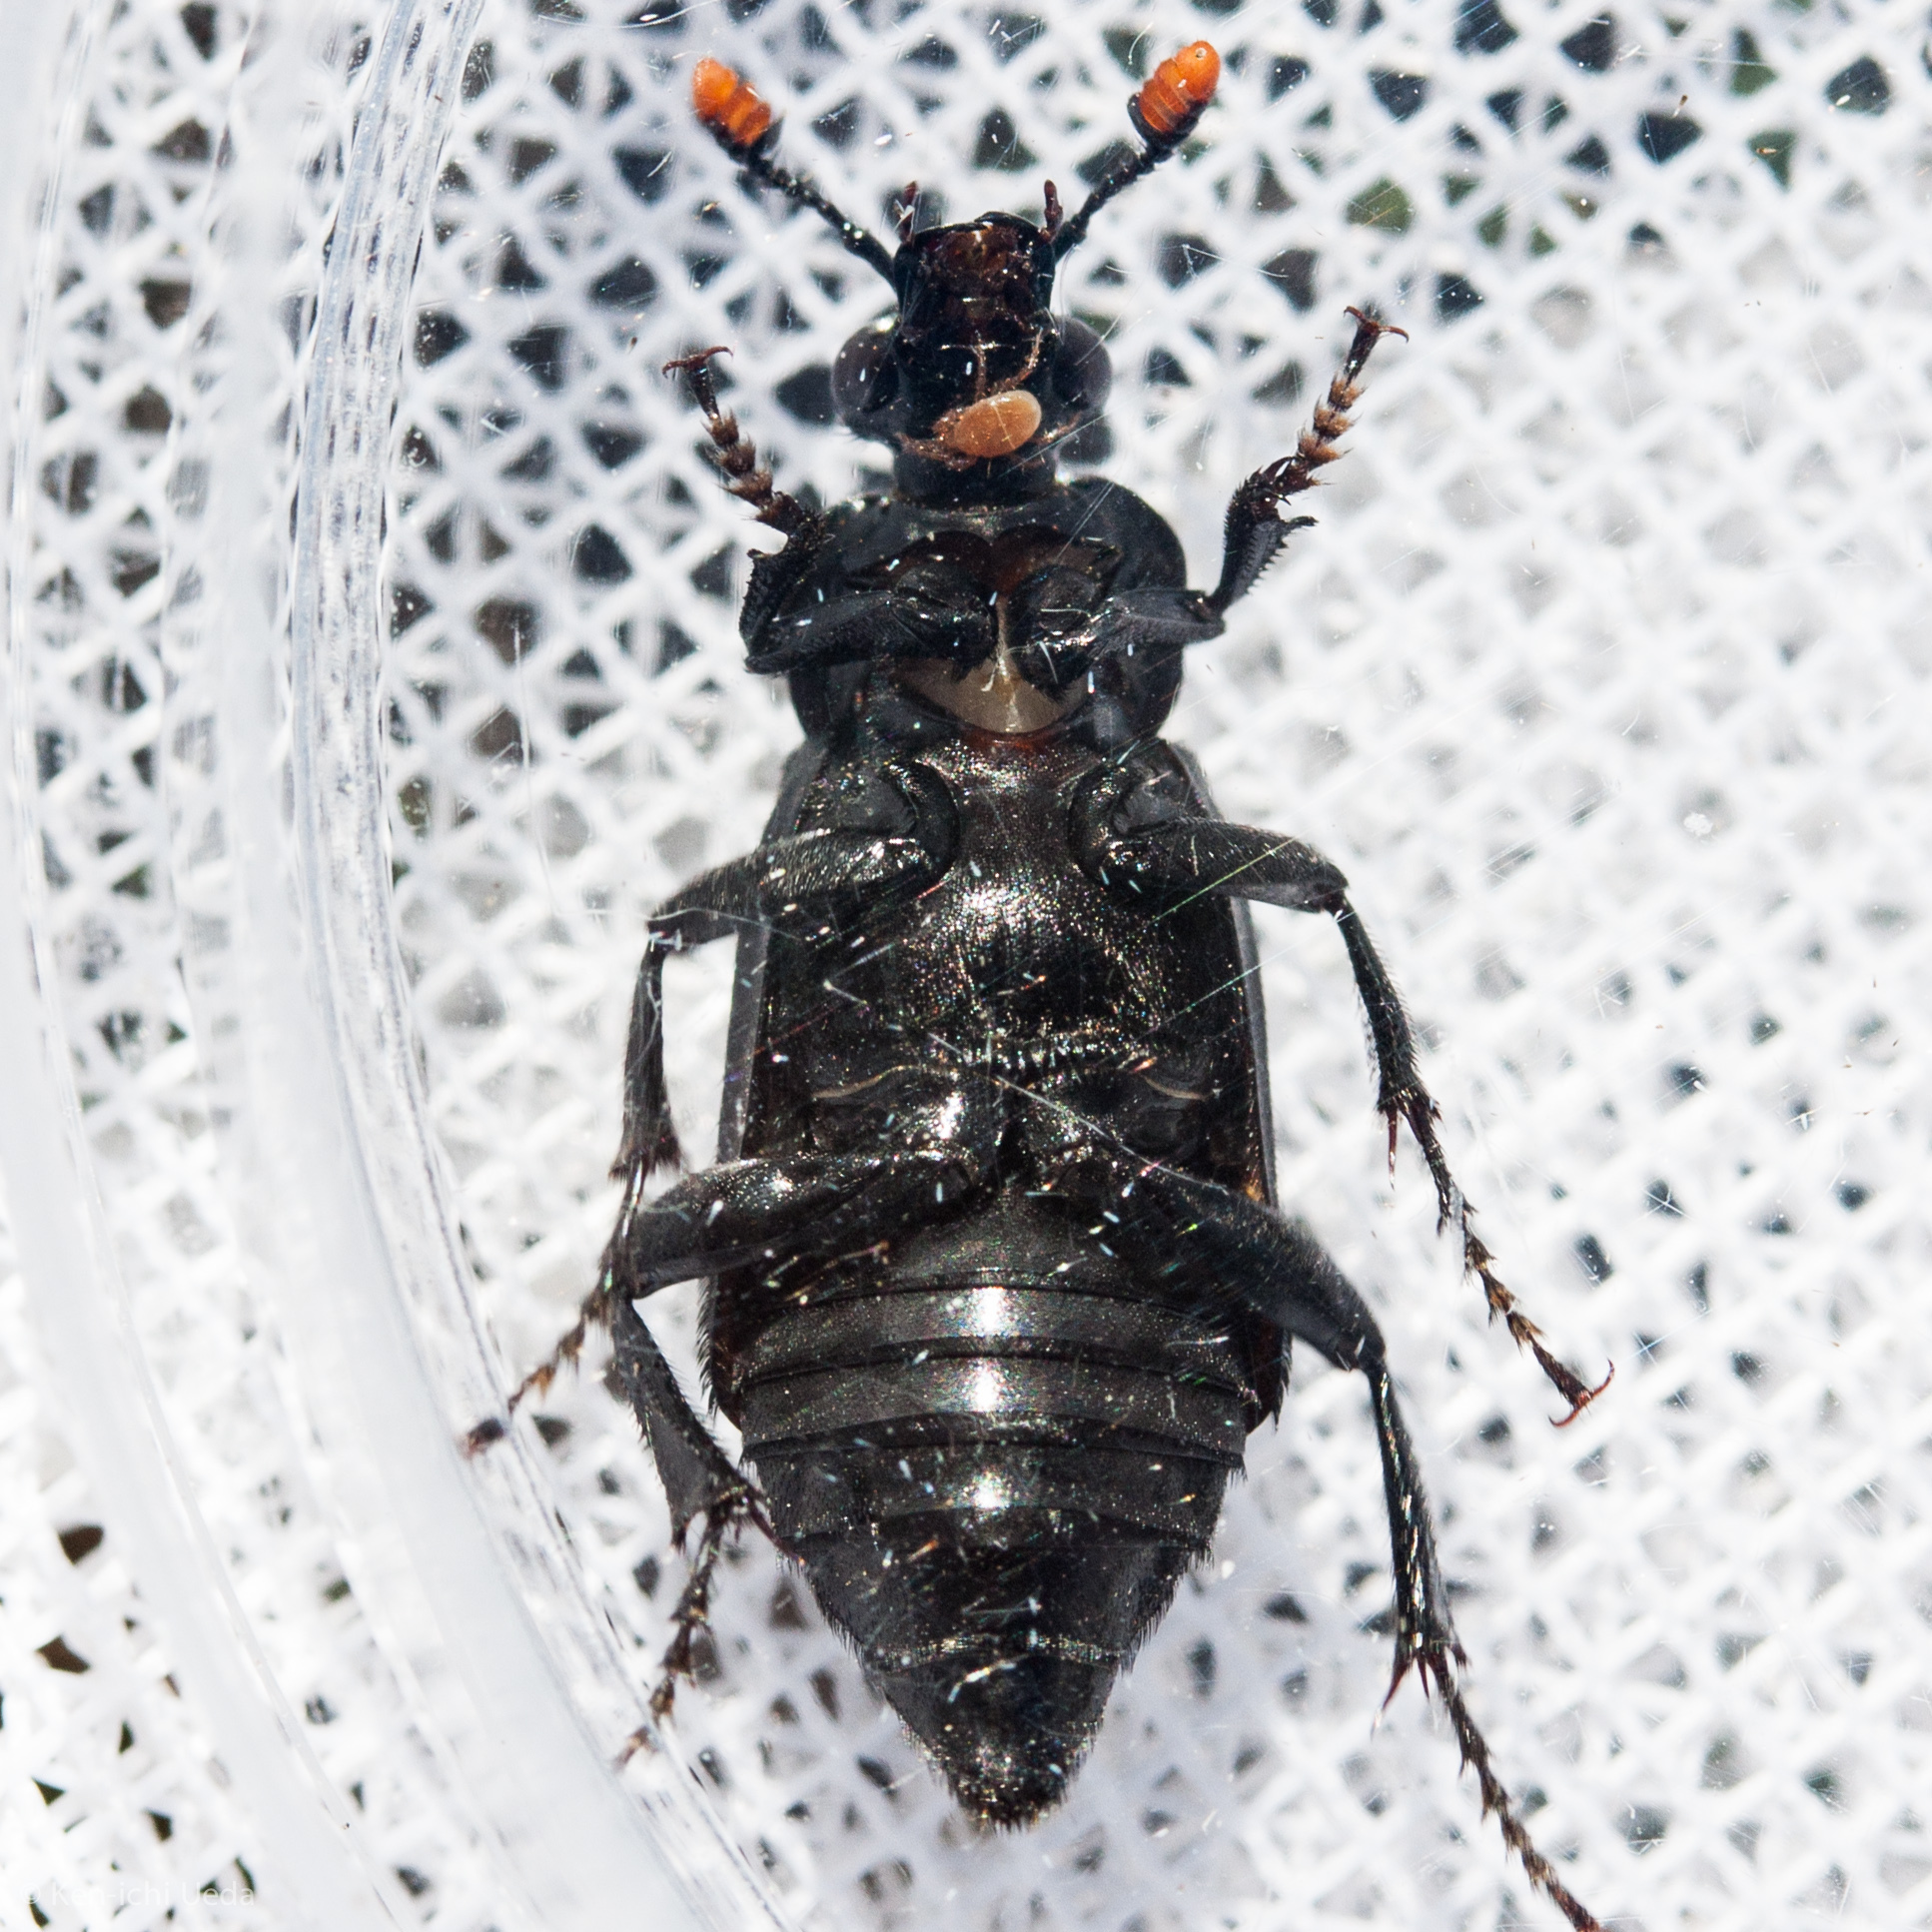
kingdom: Animalia
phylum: Arthropoda
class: Insecta
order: Coleoptera
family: Staphylinidae
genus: Nicrophorus
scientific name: Nicrophorus nigrita
